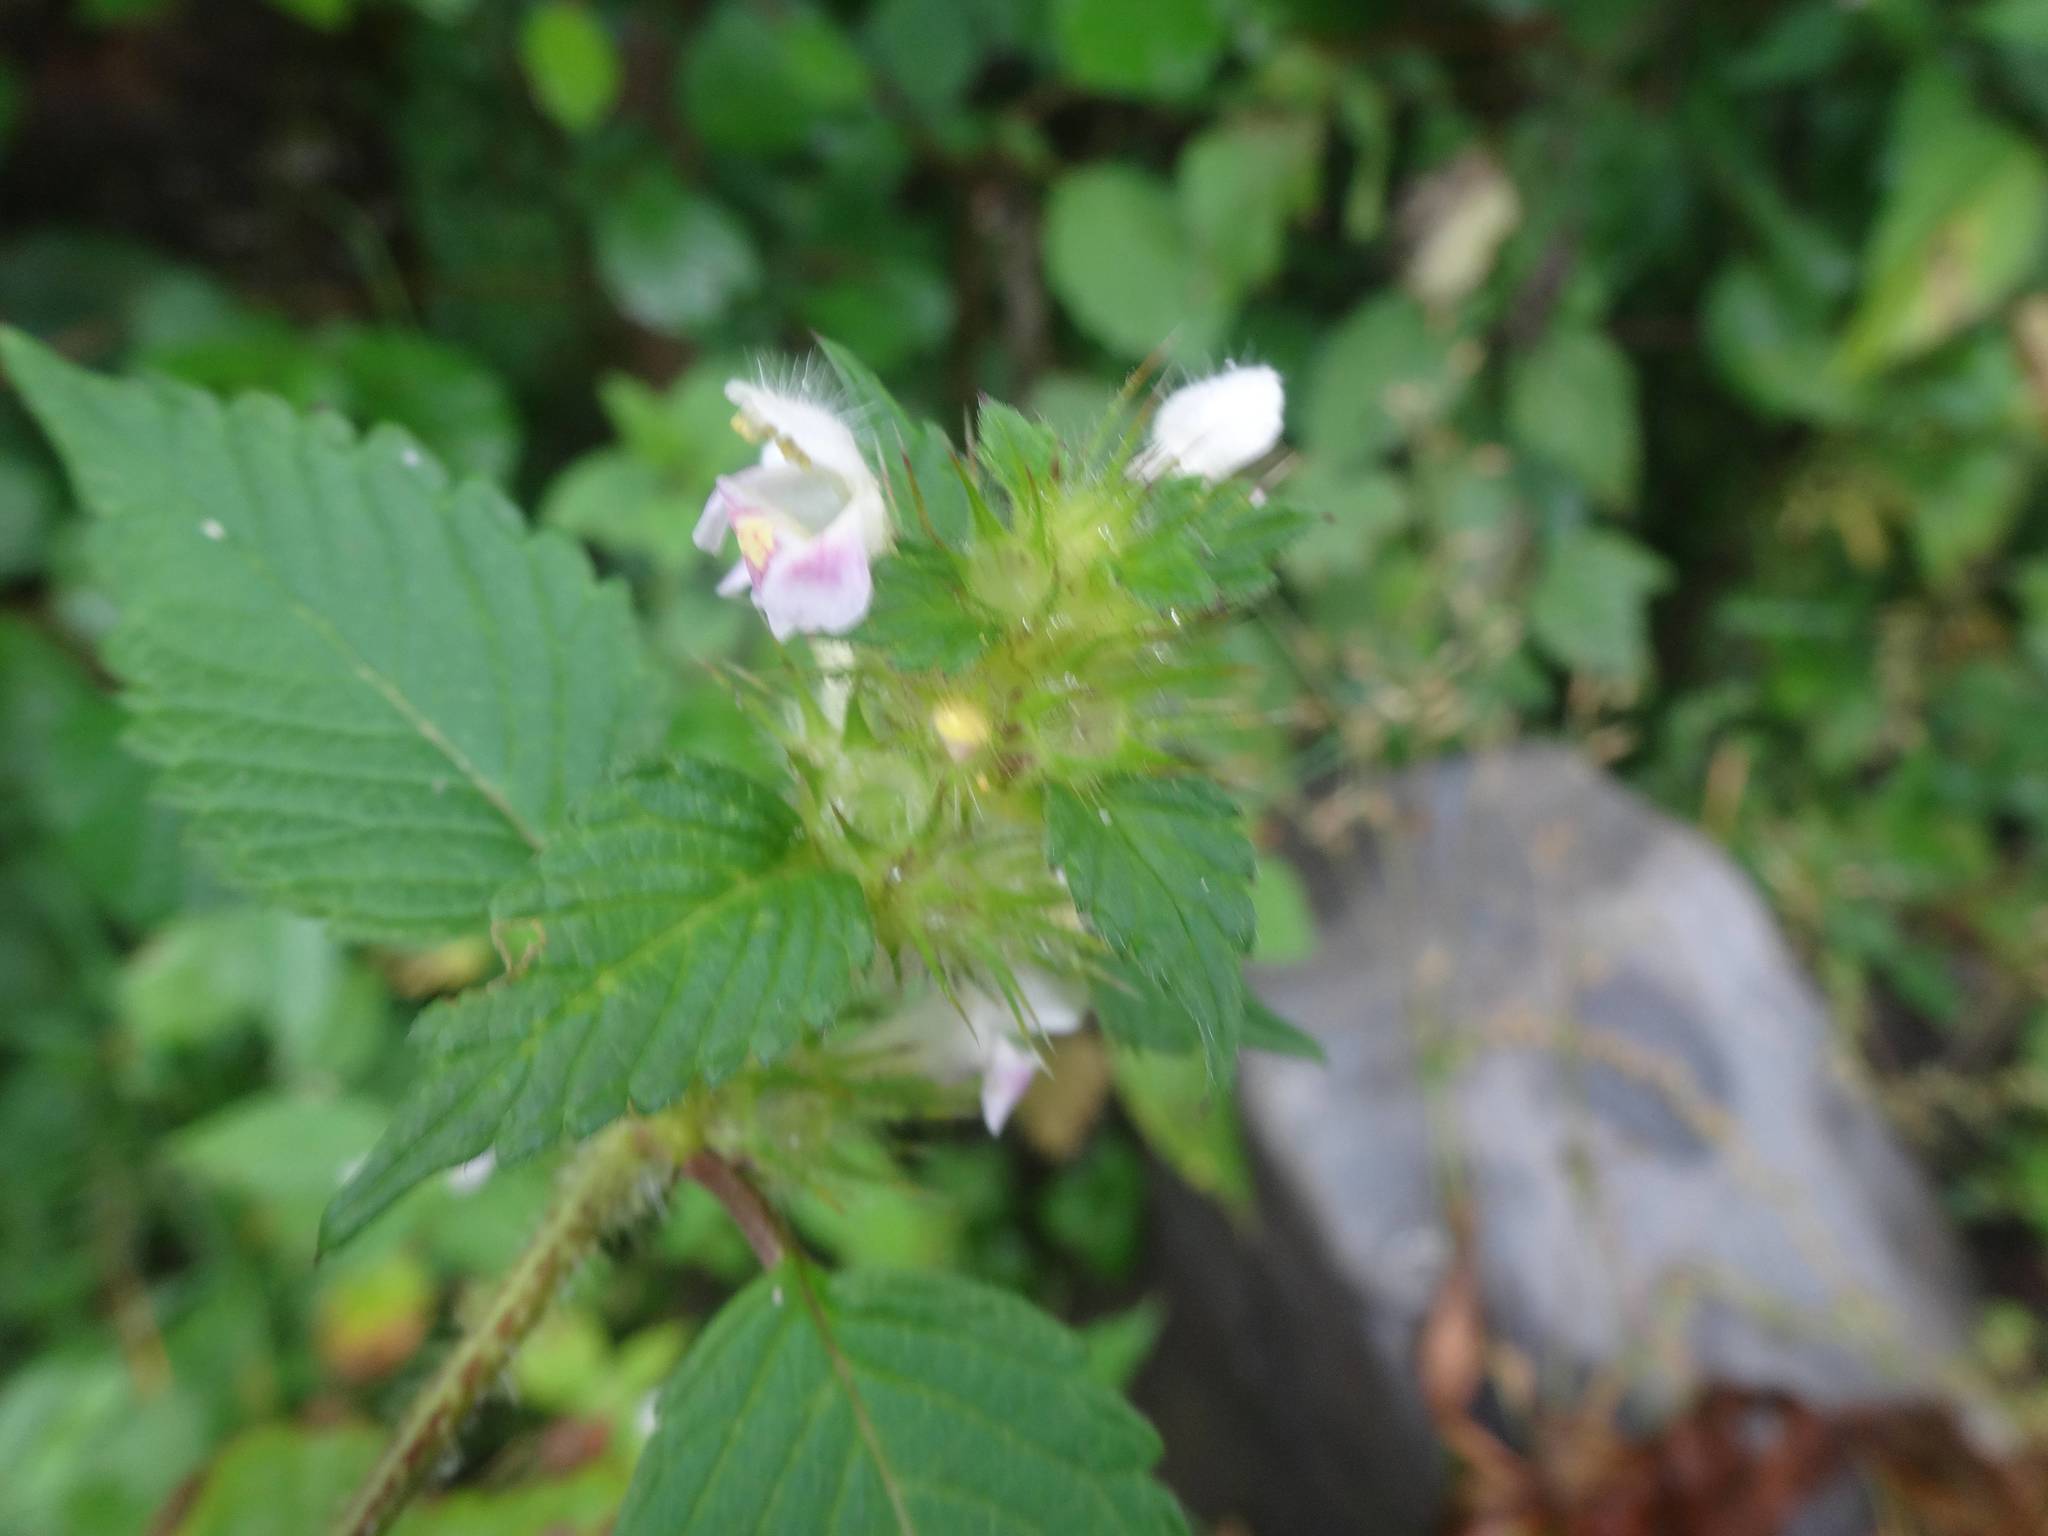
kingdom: Plantae
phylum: Tracheophyta
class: Magnoliopsida
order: Lamiales
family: Lamiaceae
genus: Galeopsis
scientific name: Galeopsis tetrahit
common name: Common hemp-nettle
